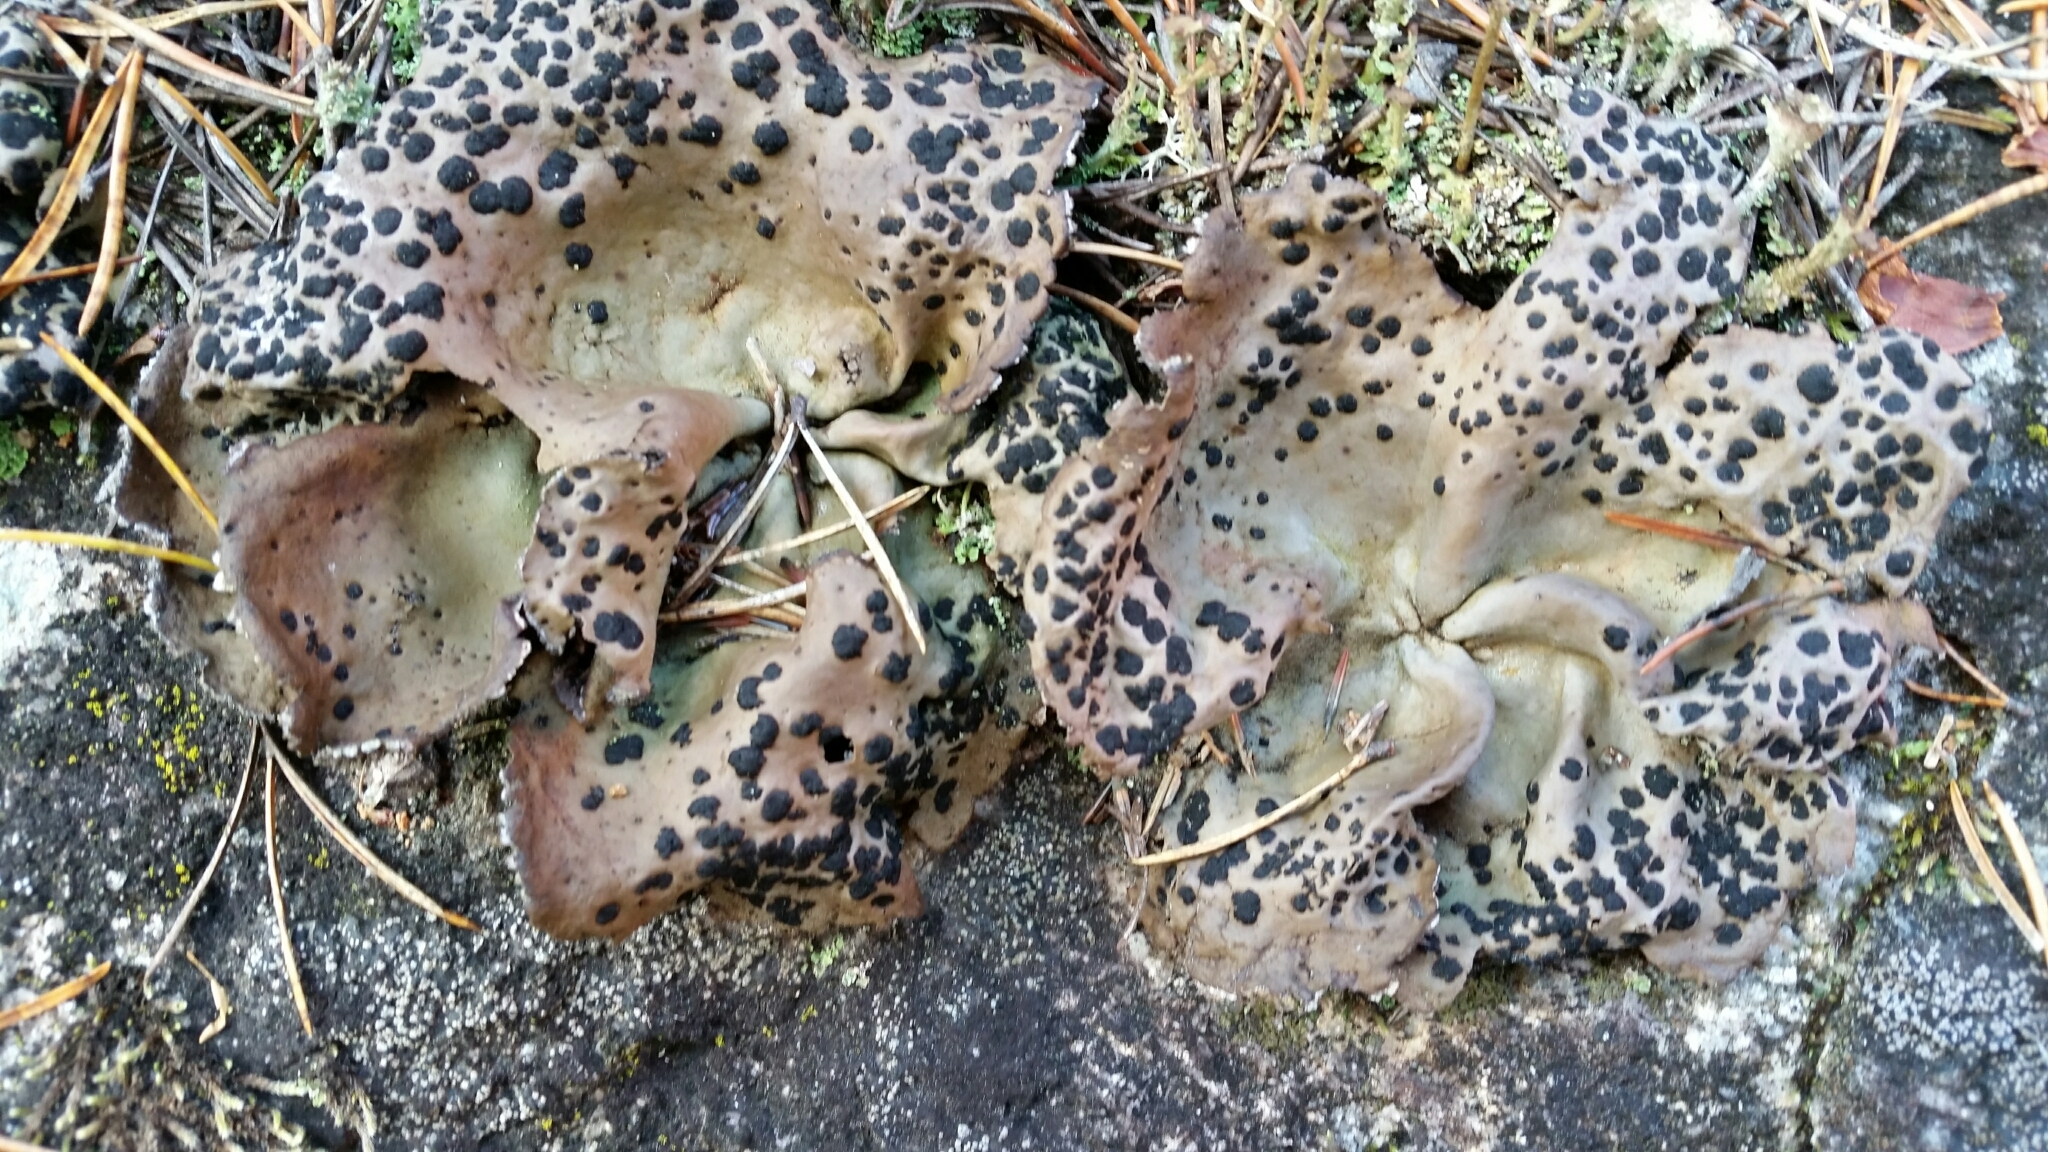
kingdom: Fungi
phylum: Ascomycota
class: Lecanoromycetes
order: Umbilicariales
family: Umbilicariaceae
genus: Umbilicaria
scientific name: Umbilicaria muhlenbergii
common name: Lesser rocktripe
